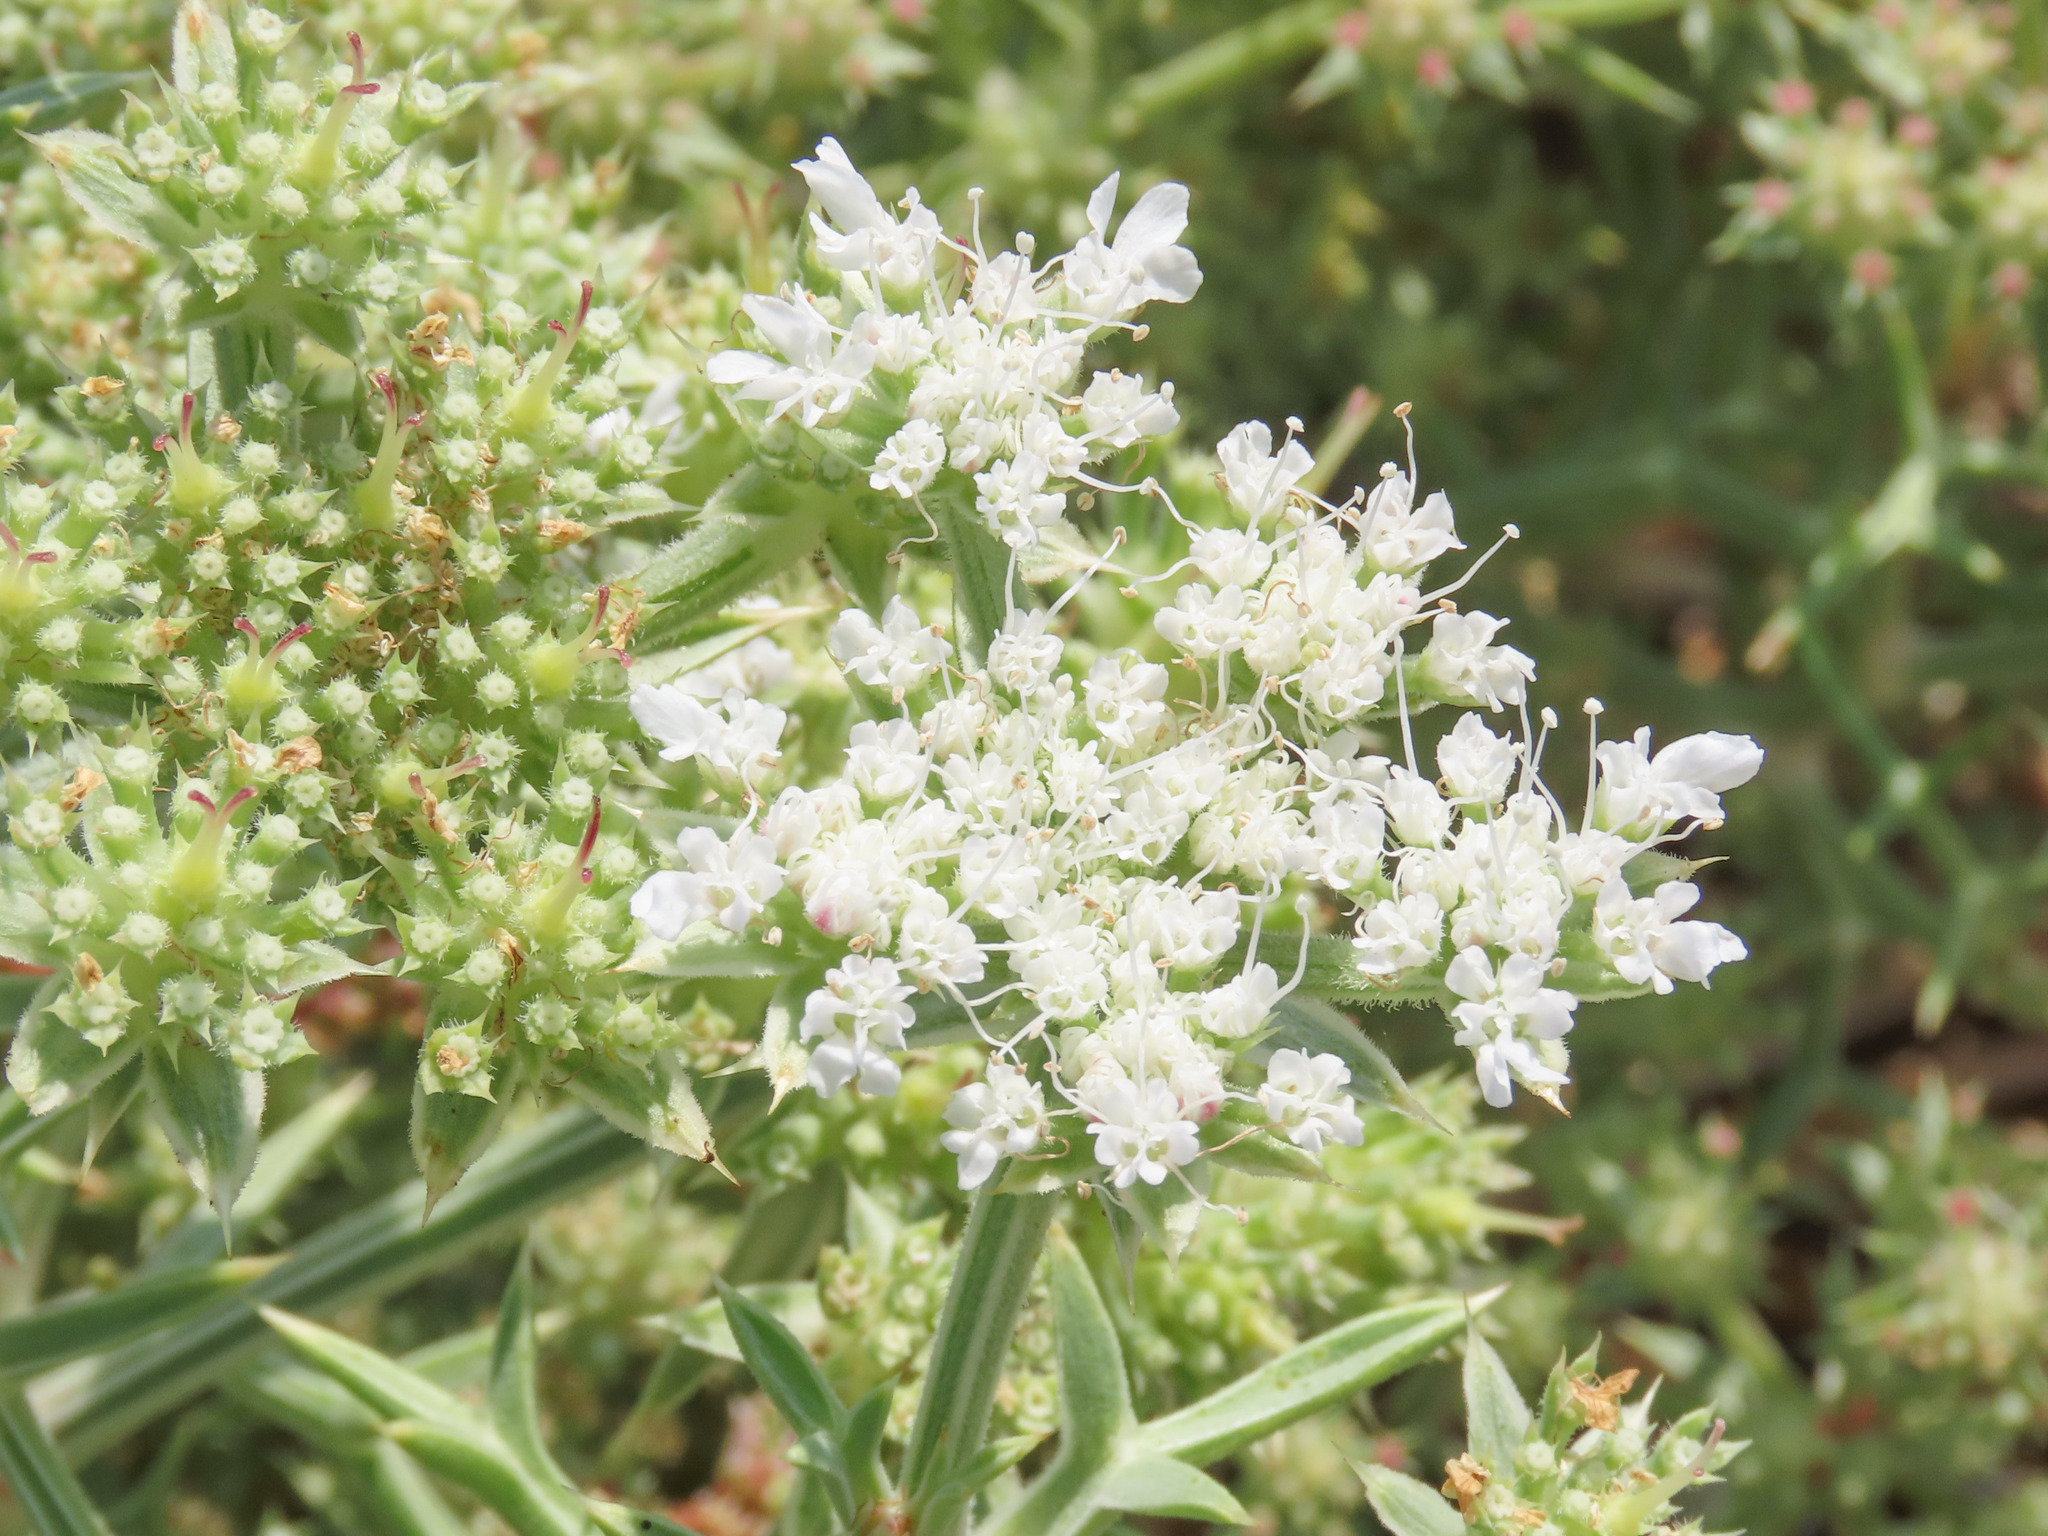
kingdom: Plantae
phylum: Tracheophyta
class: Magnoliopsida
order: Apiales
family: Apiaceae
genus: Echinophora
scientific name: Echinophora spinosa
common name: Prickly samphire
